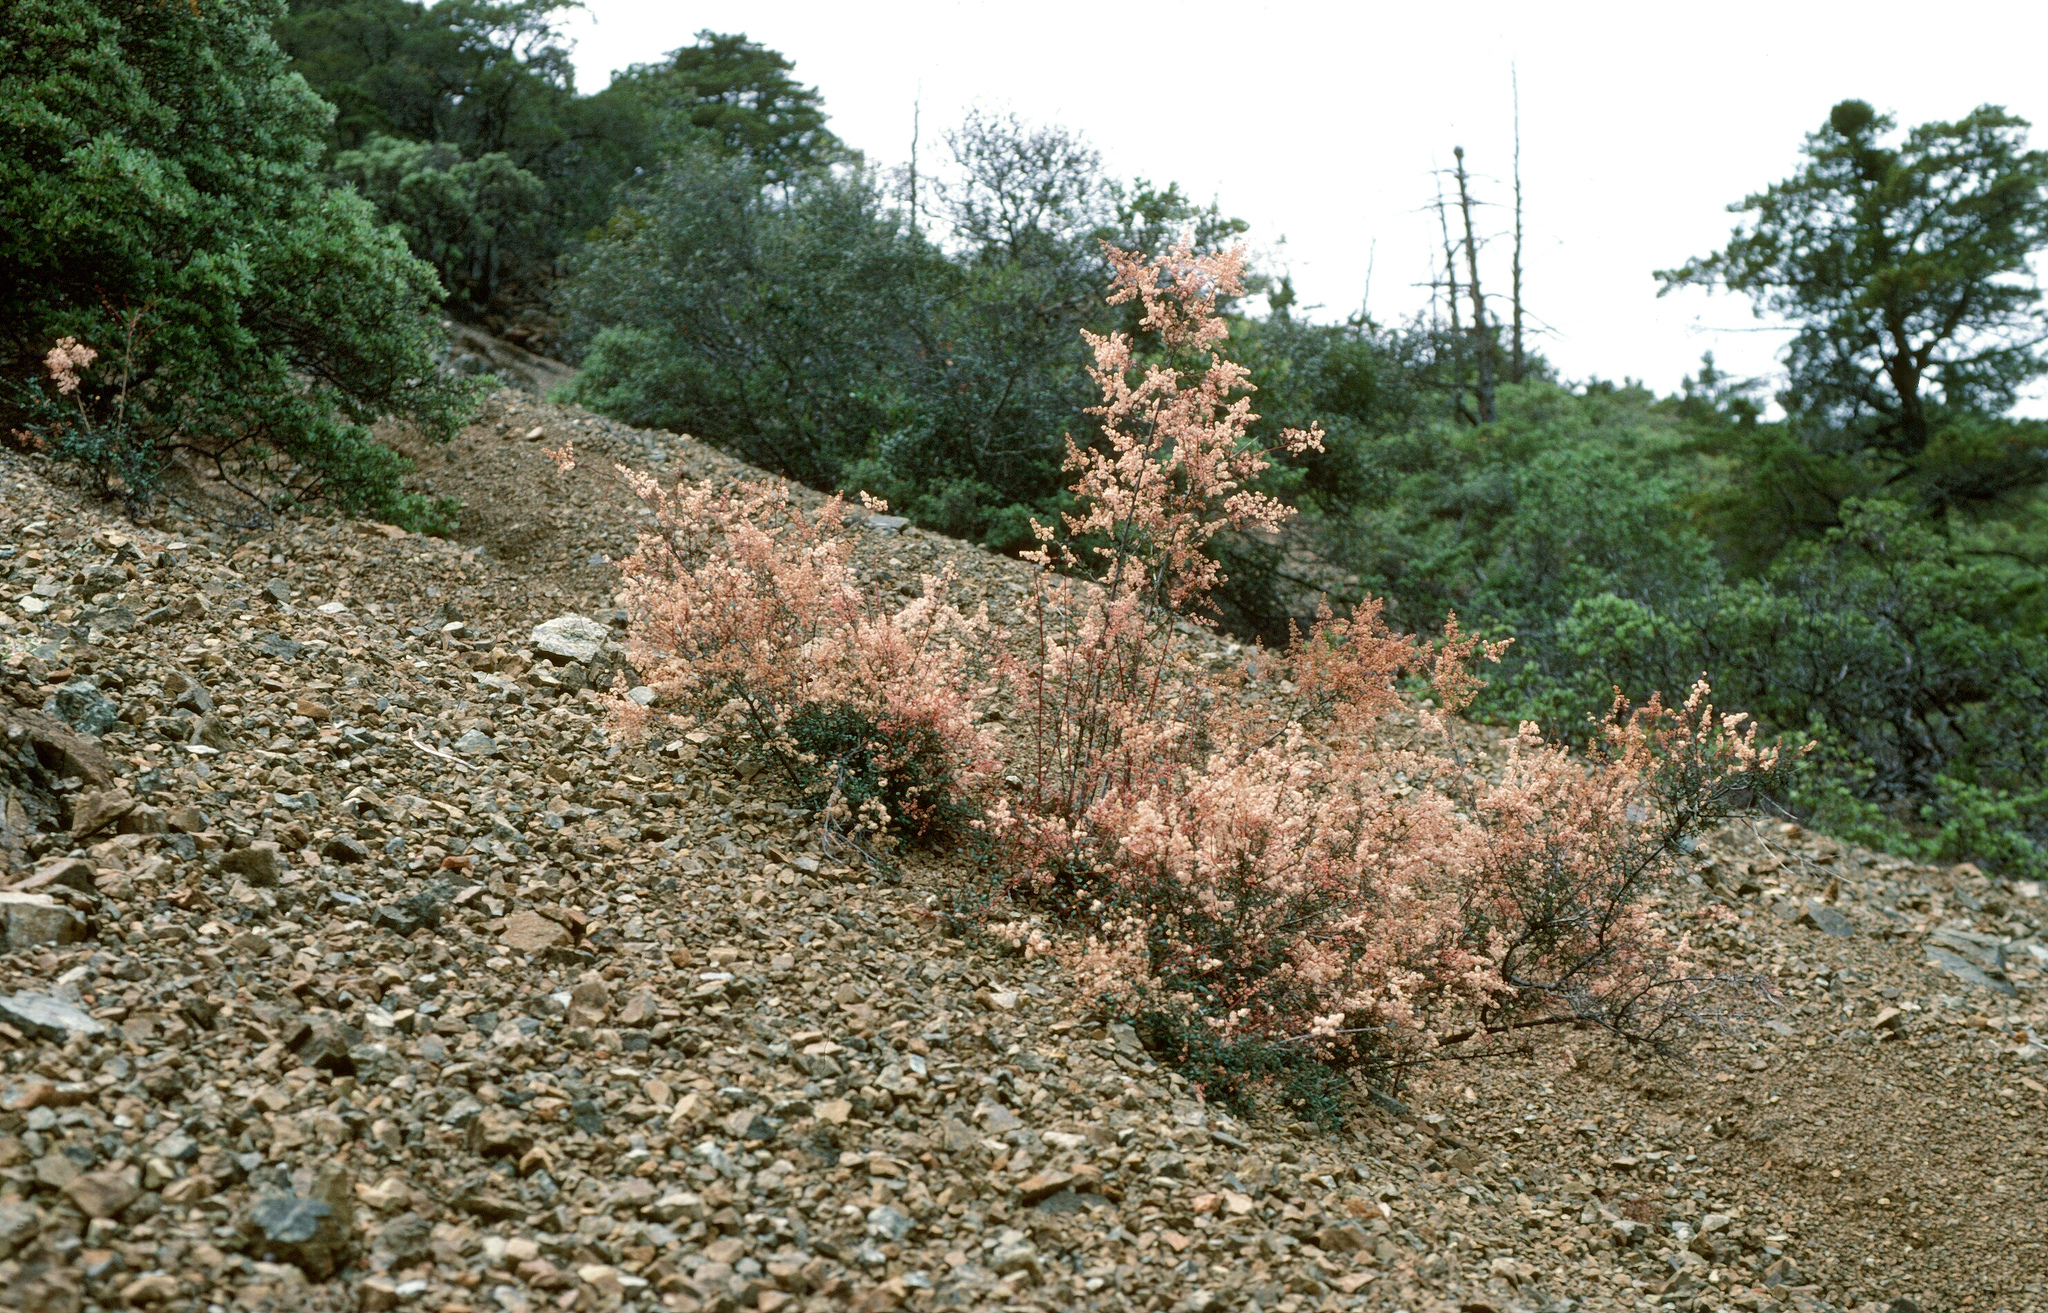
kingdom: Plantae
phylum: Tracheophyta
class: Magnoliopsida
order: Rosales
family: Rosaceae
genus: Holodiscus
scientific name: Holodiscus discolor
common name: Oceanspray
